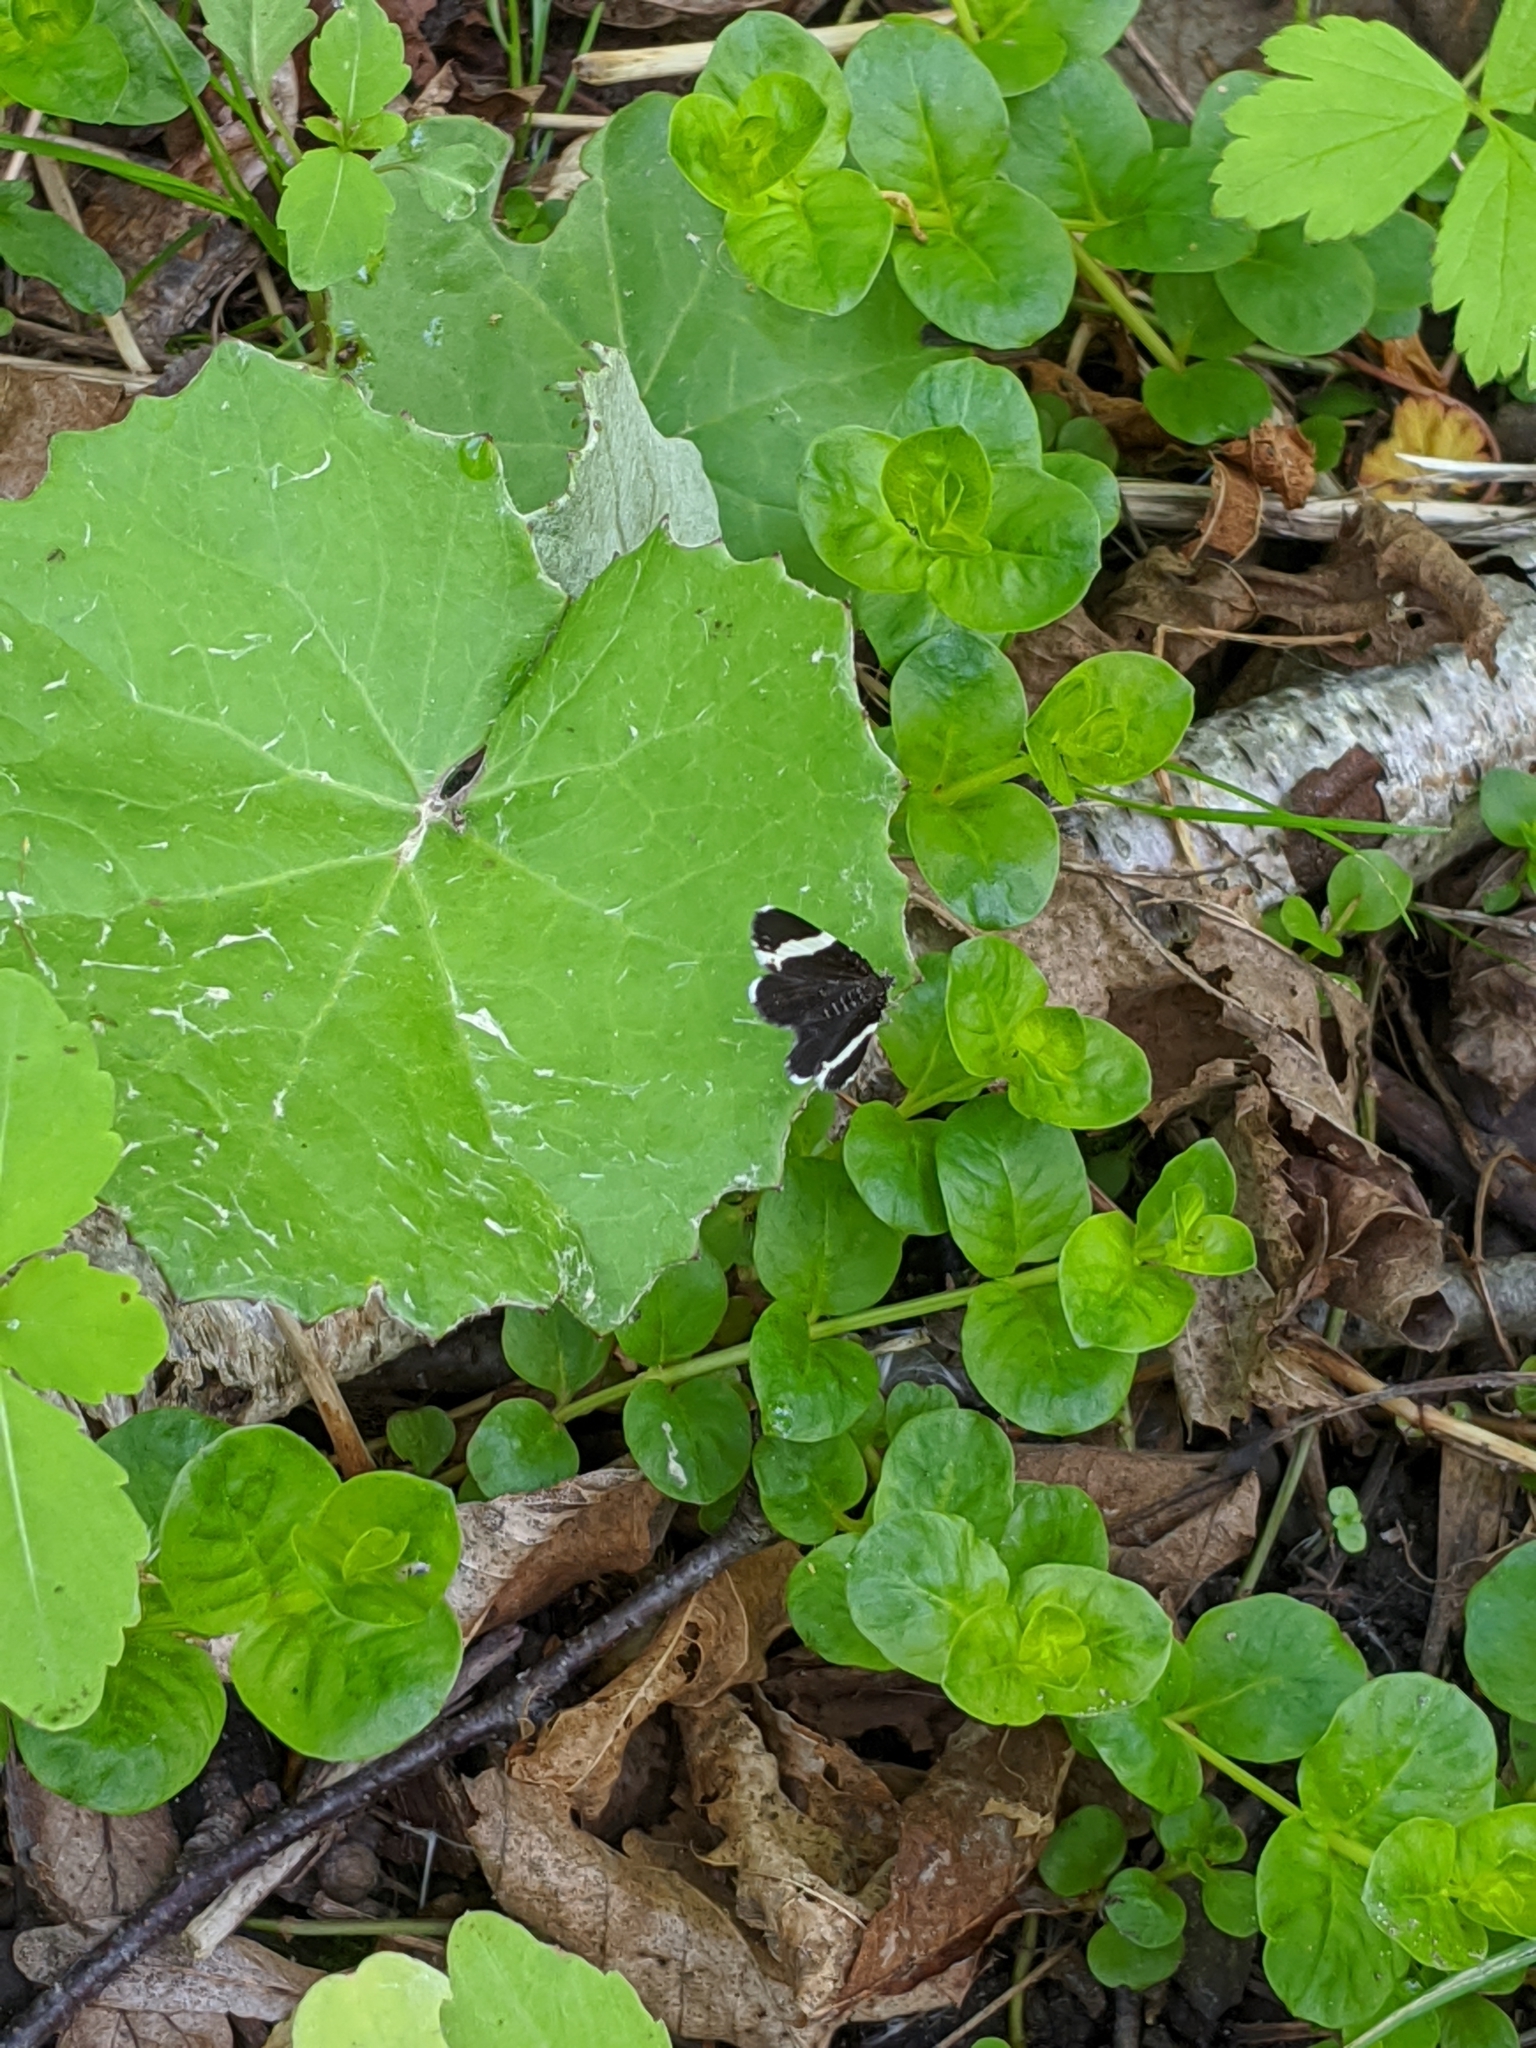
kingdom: Animalia
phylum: Arthropoda
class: Insecta
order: Lepidoptera
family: Geometridae
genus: Trichodezia
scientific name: Trichodezia albovittata
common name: White striped black
